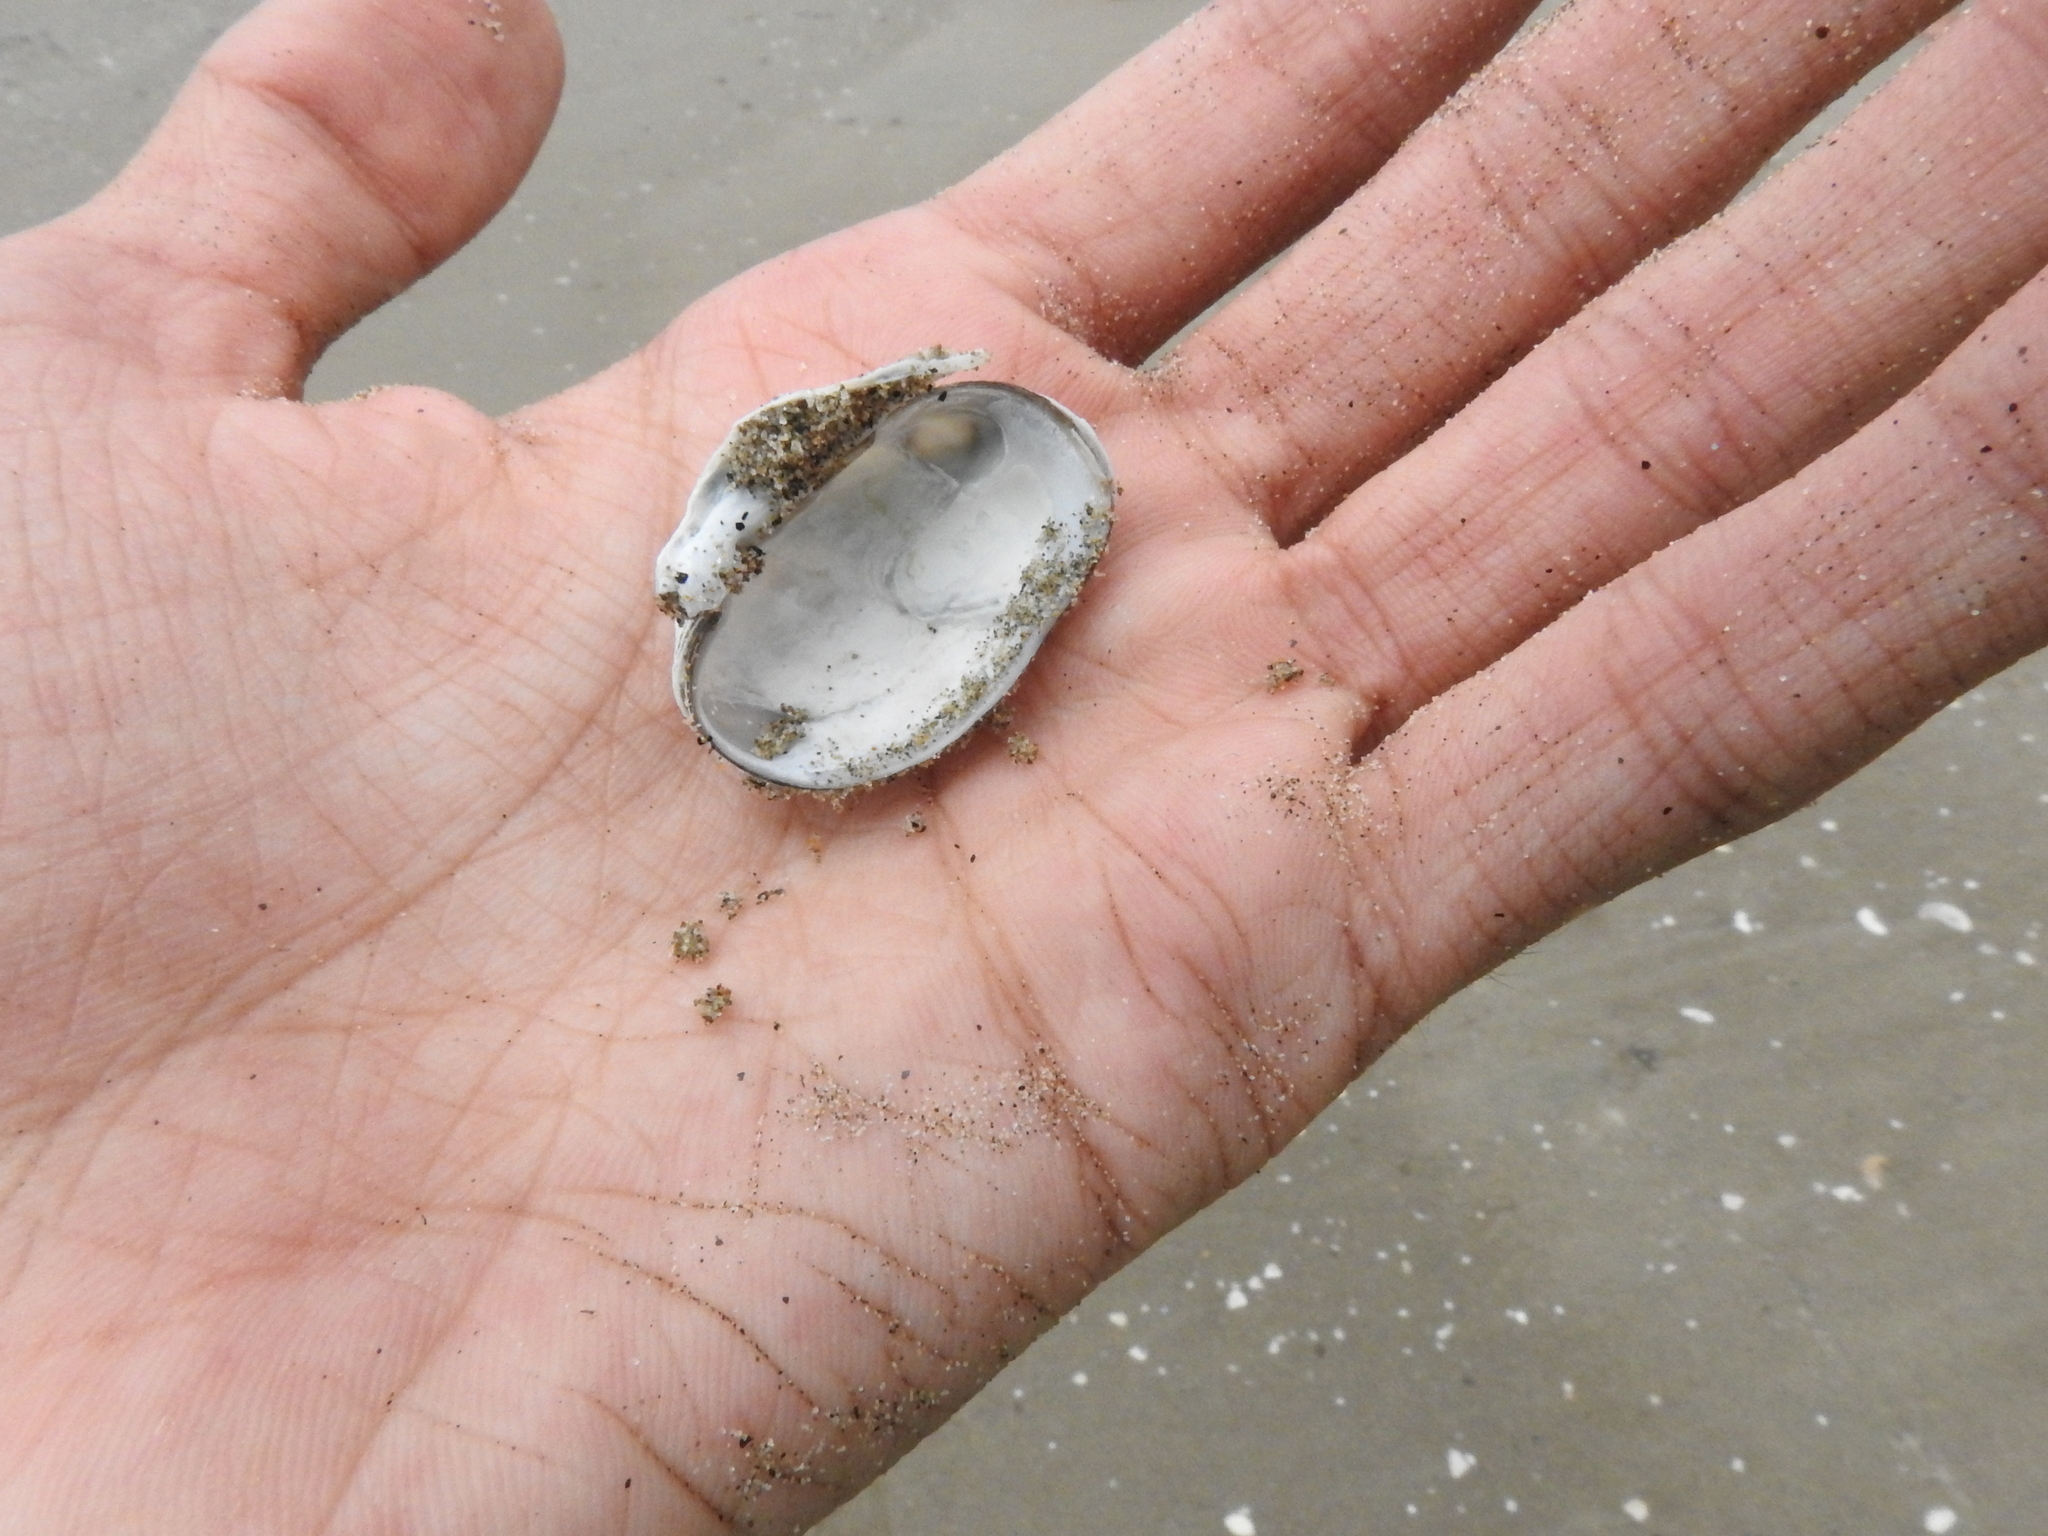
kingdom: Animalia
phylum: Mollusca
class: Bivalvia
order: Venerida
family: Veneridae
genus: Petricola
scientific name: Petricola carditoides
